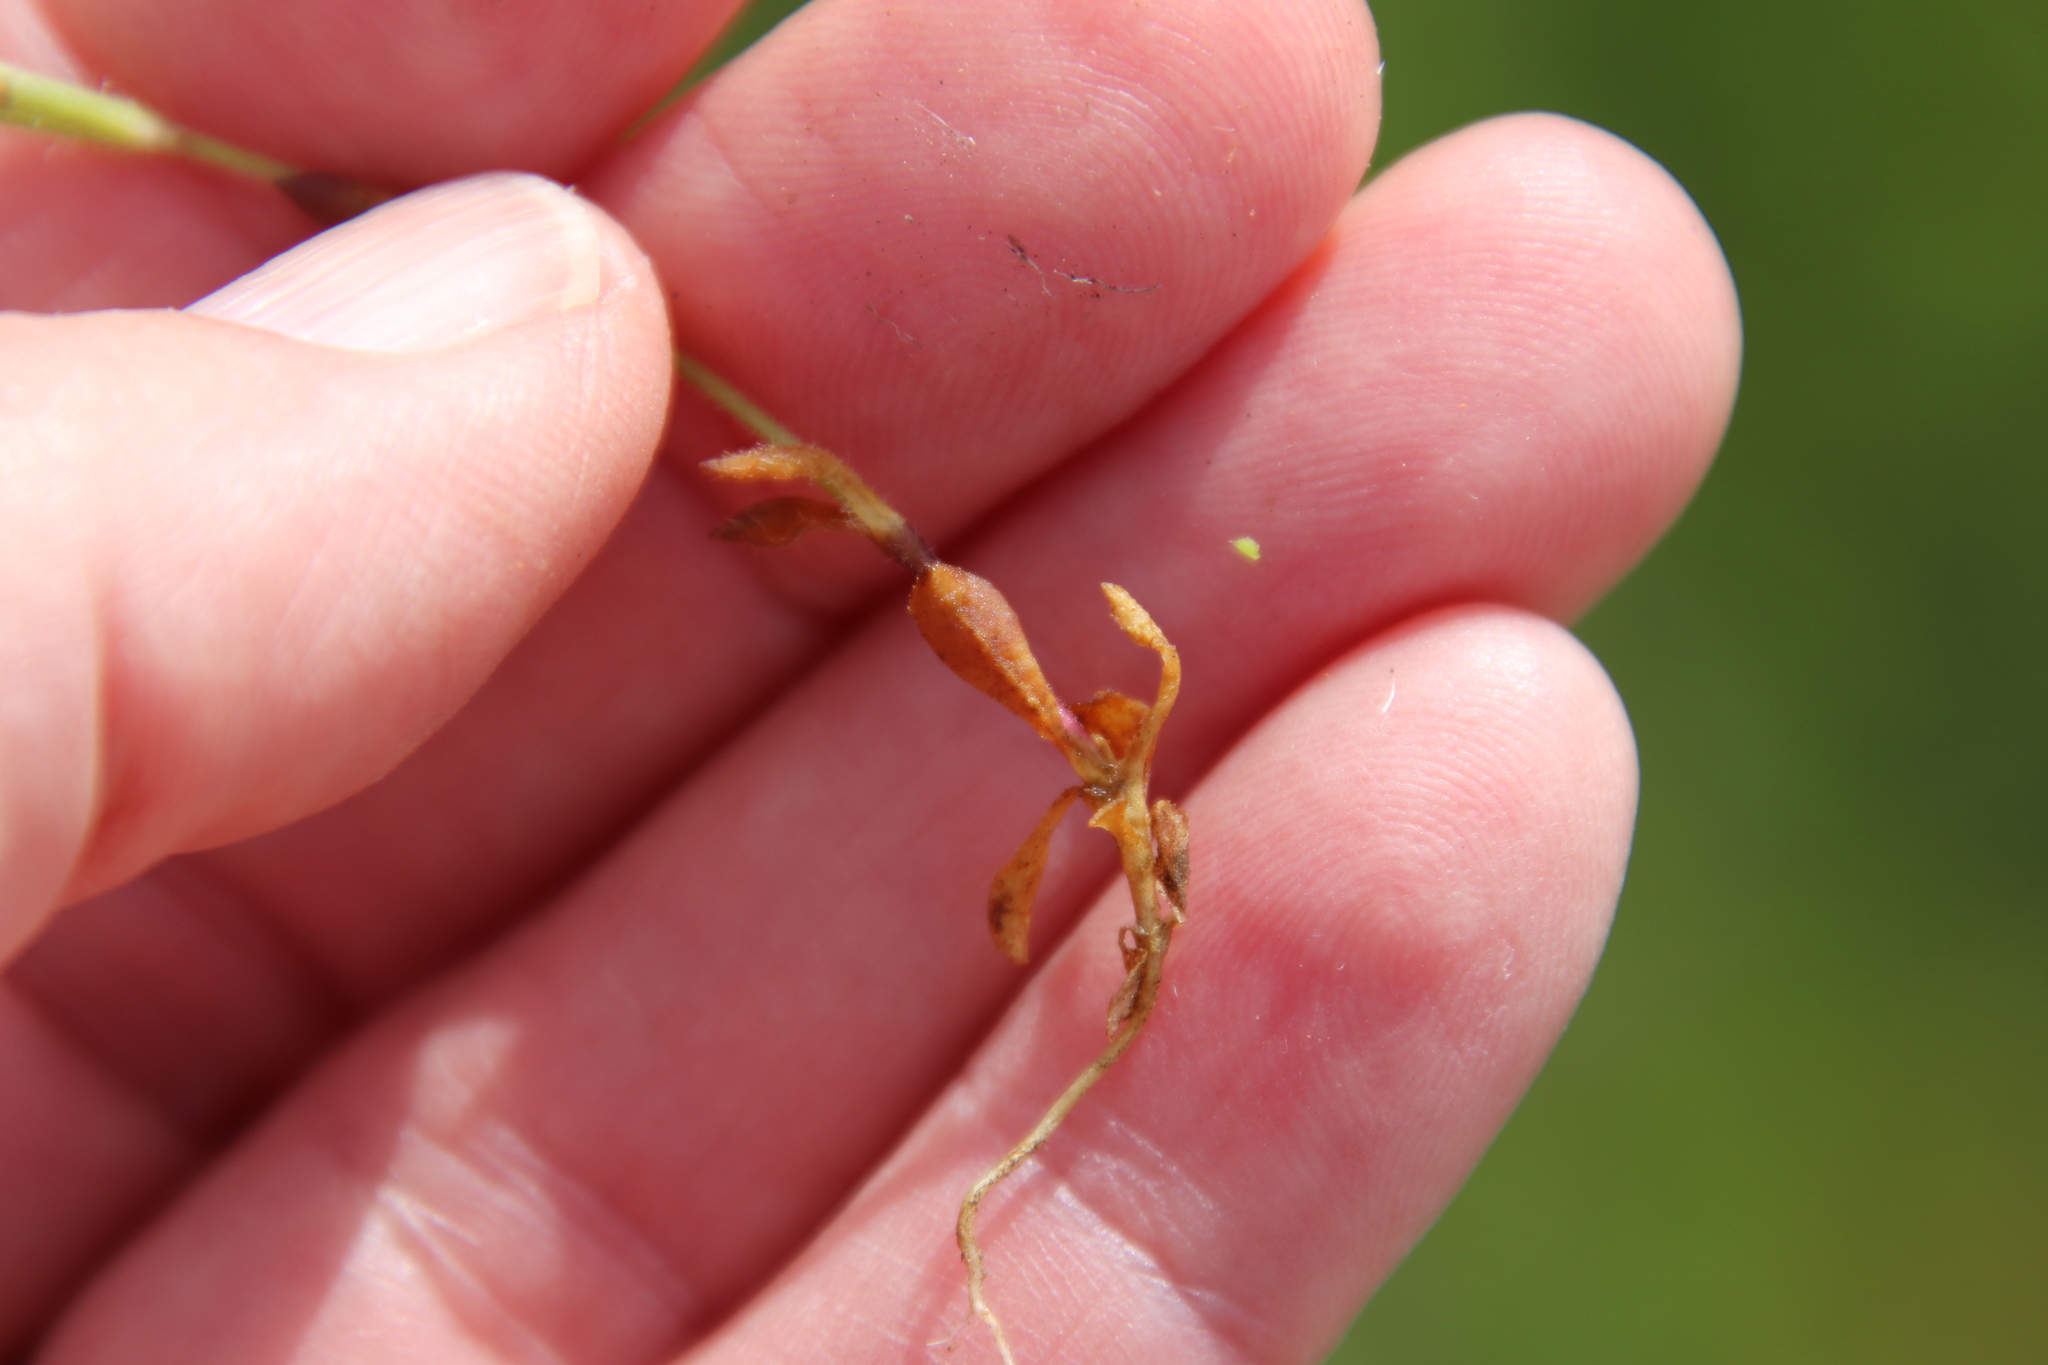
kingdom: Plantae
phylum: Tracheophyta
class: Magnoliopsida
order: Caryophyllales
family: Caryophyllaceae
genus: Silene
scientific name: Silene gallica
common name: Small-flowered catchfly
